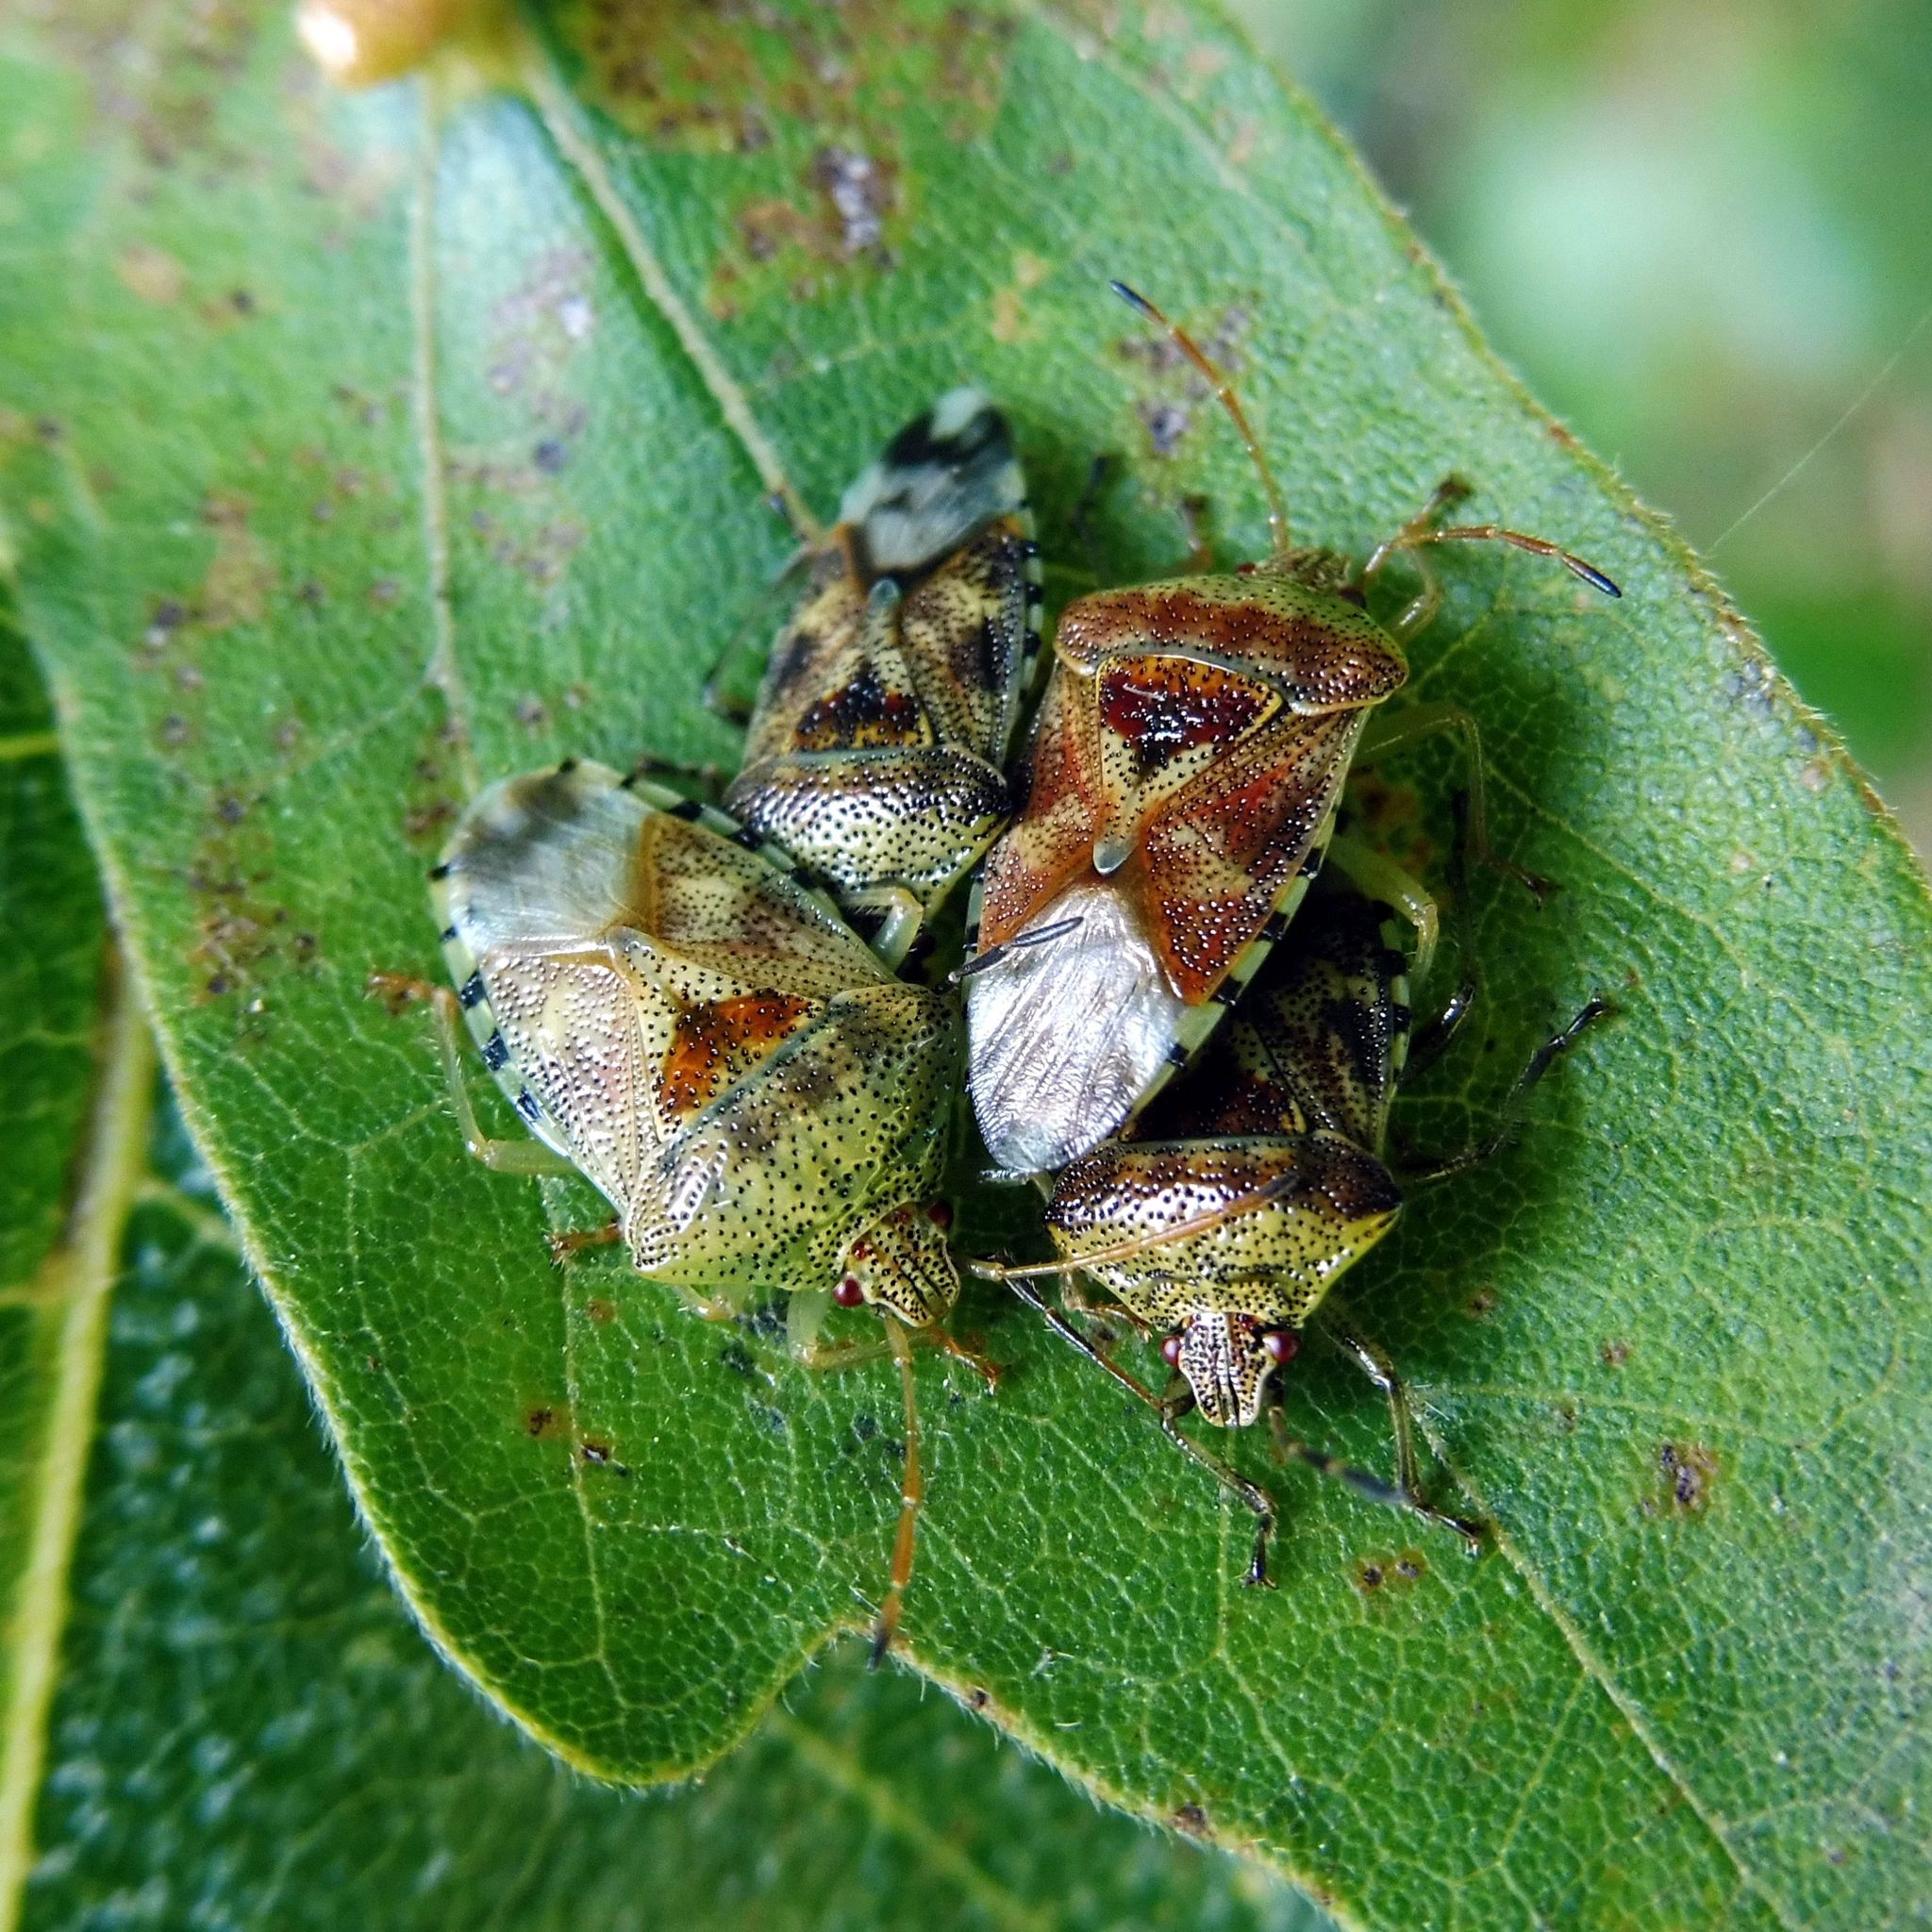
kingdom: Animalia
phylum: Arthropoda
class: Insecta
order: Hemiptera
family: Acanthosomatidae
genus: Elasmucha
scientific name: Elasmucha grisea
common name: Parent bug
